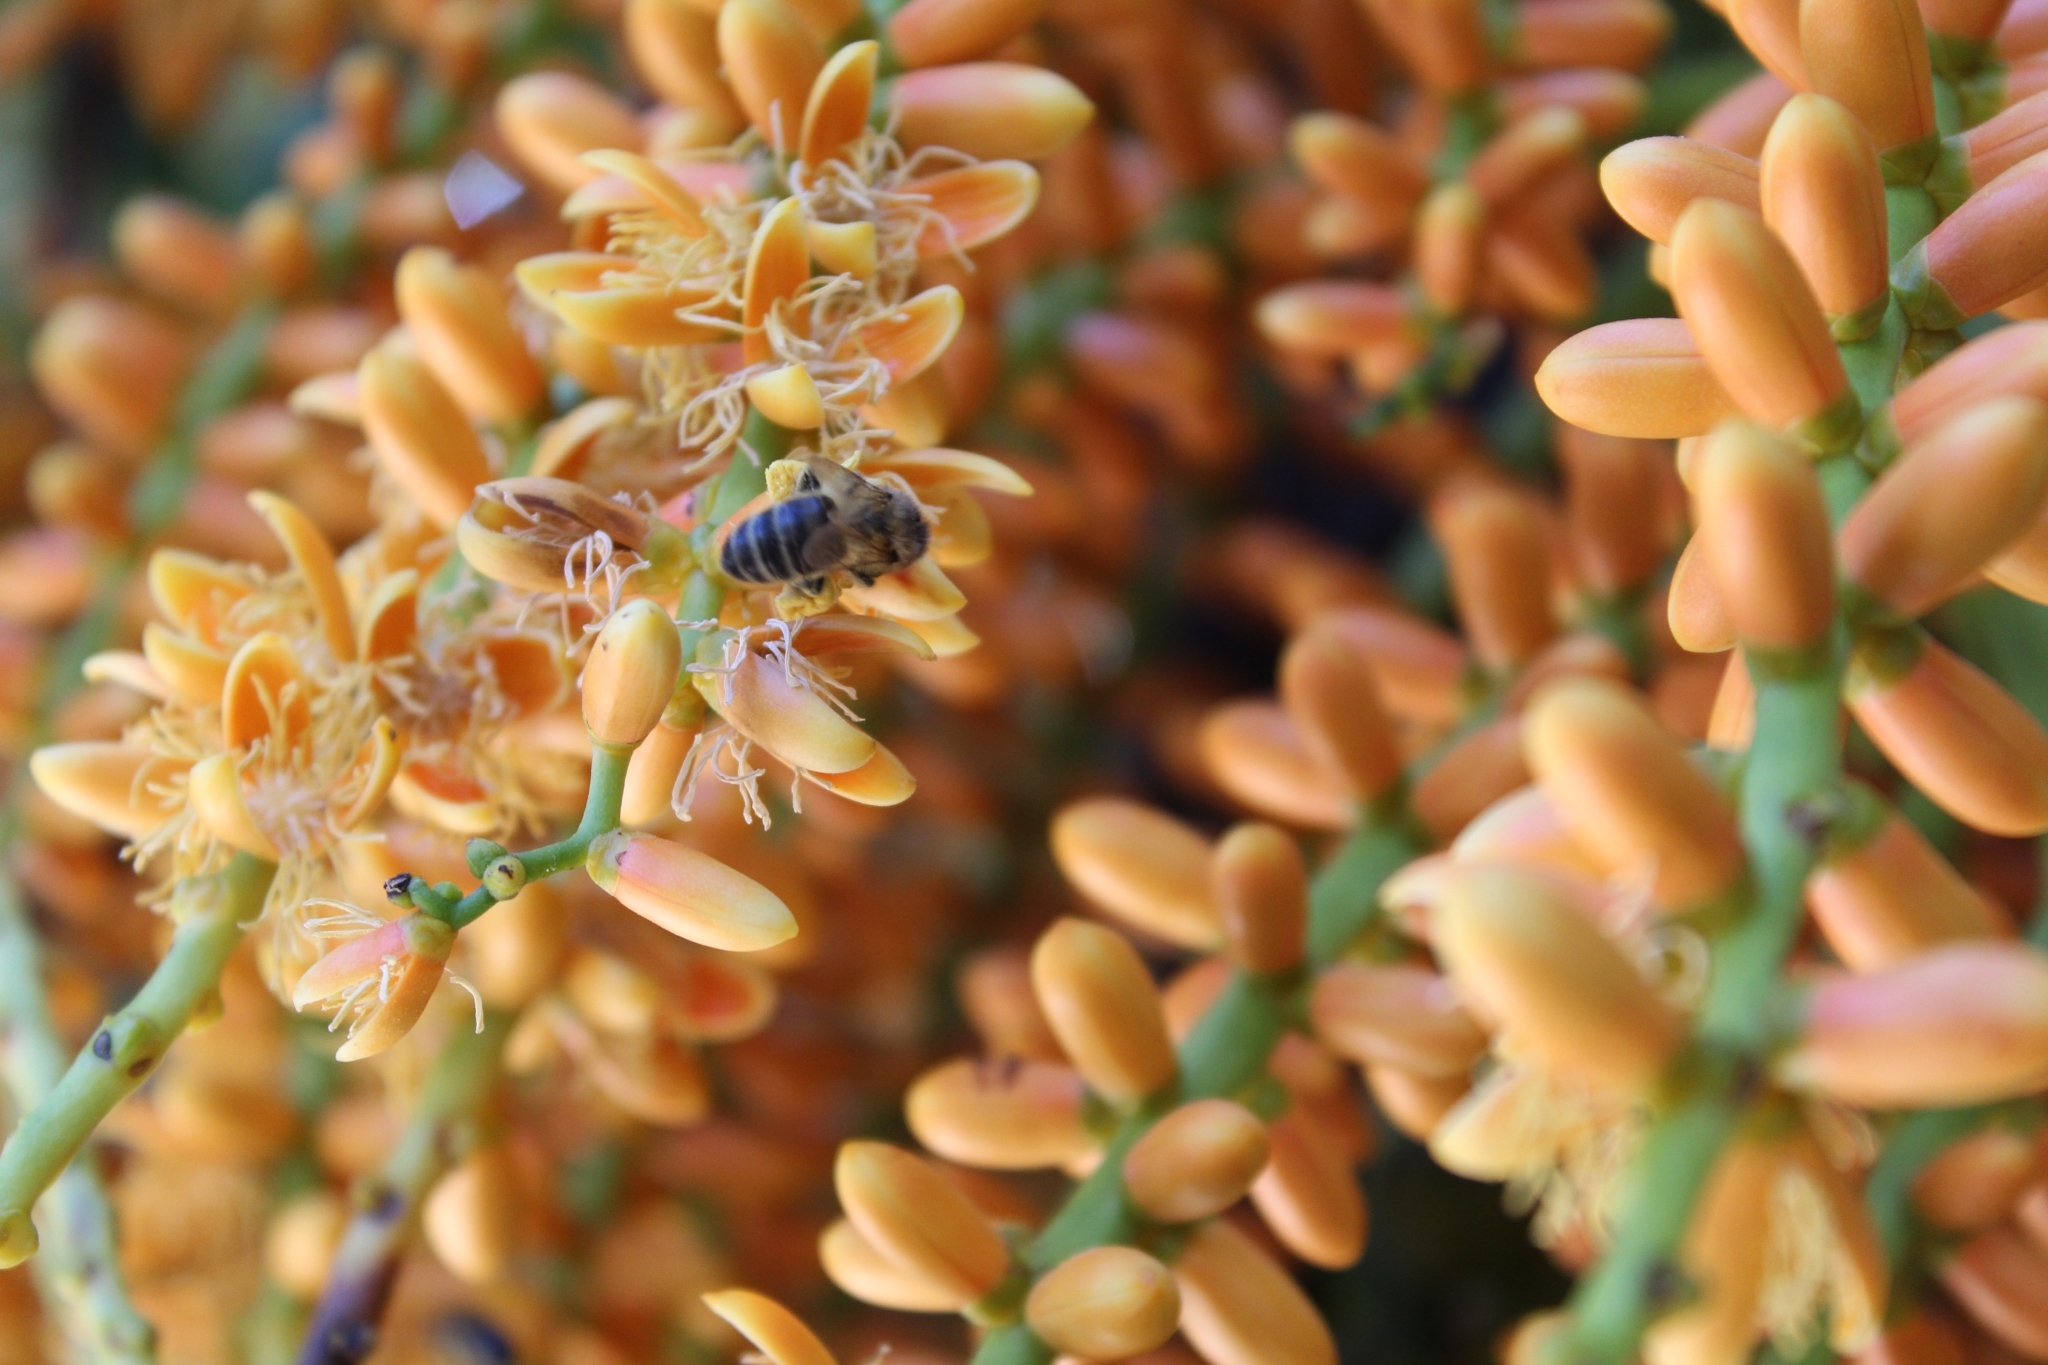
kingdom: Animalia
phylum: Arthropoda
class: Insecta
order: Hymenoptera
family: Apidae
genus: Apis
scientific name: Apis mellifera
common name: Honey bee
